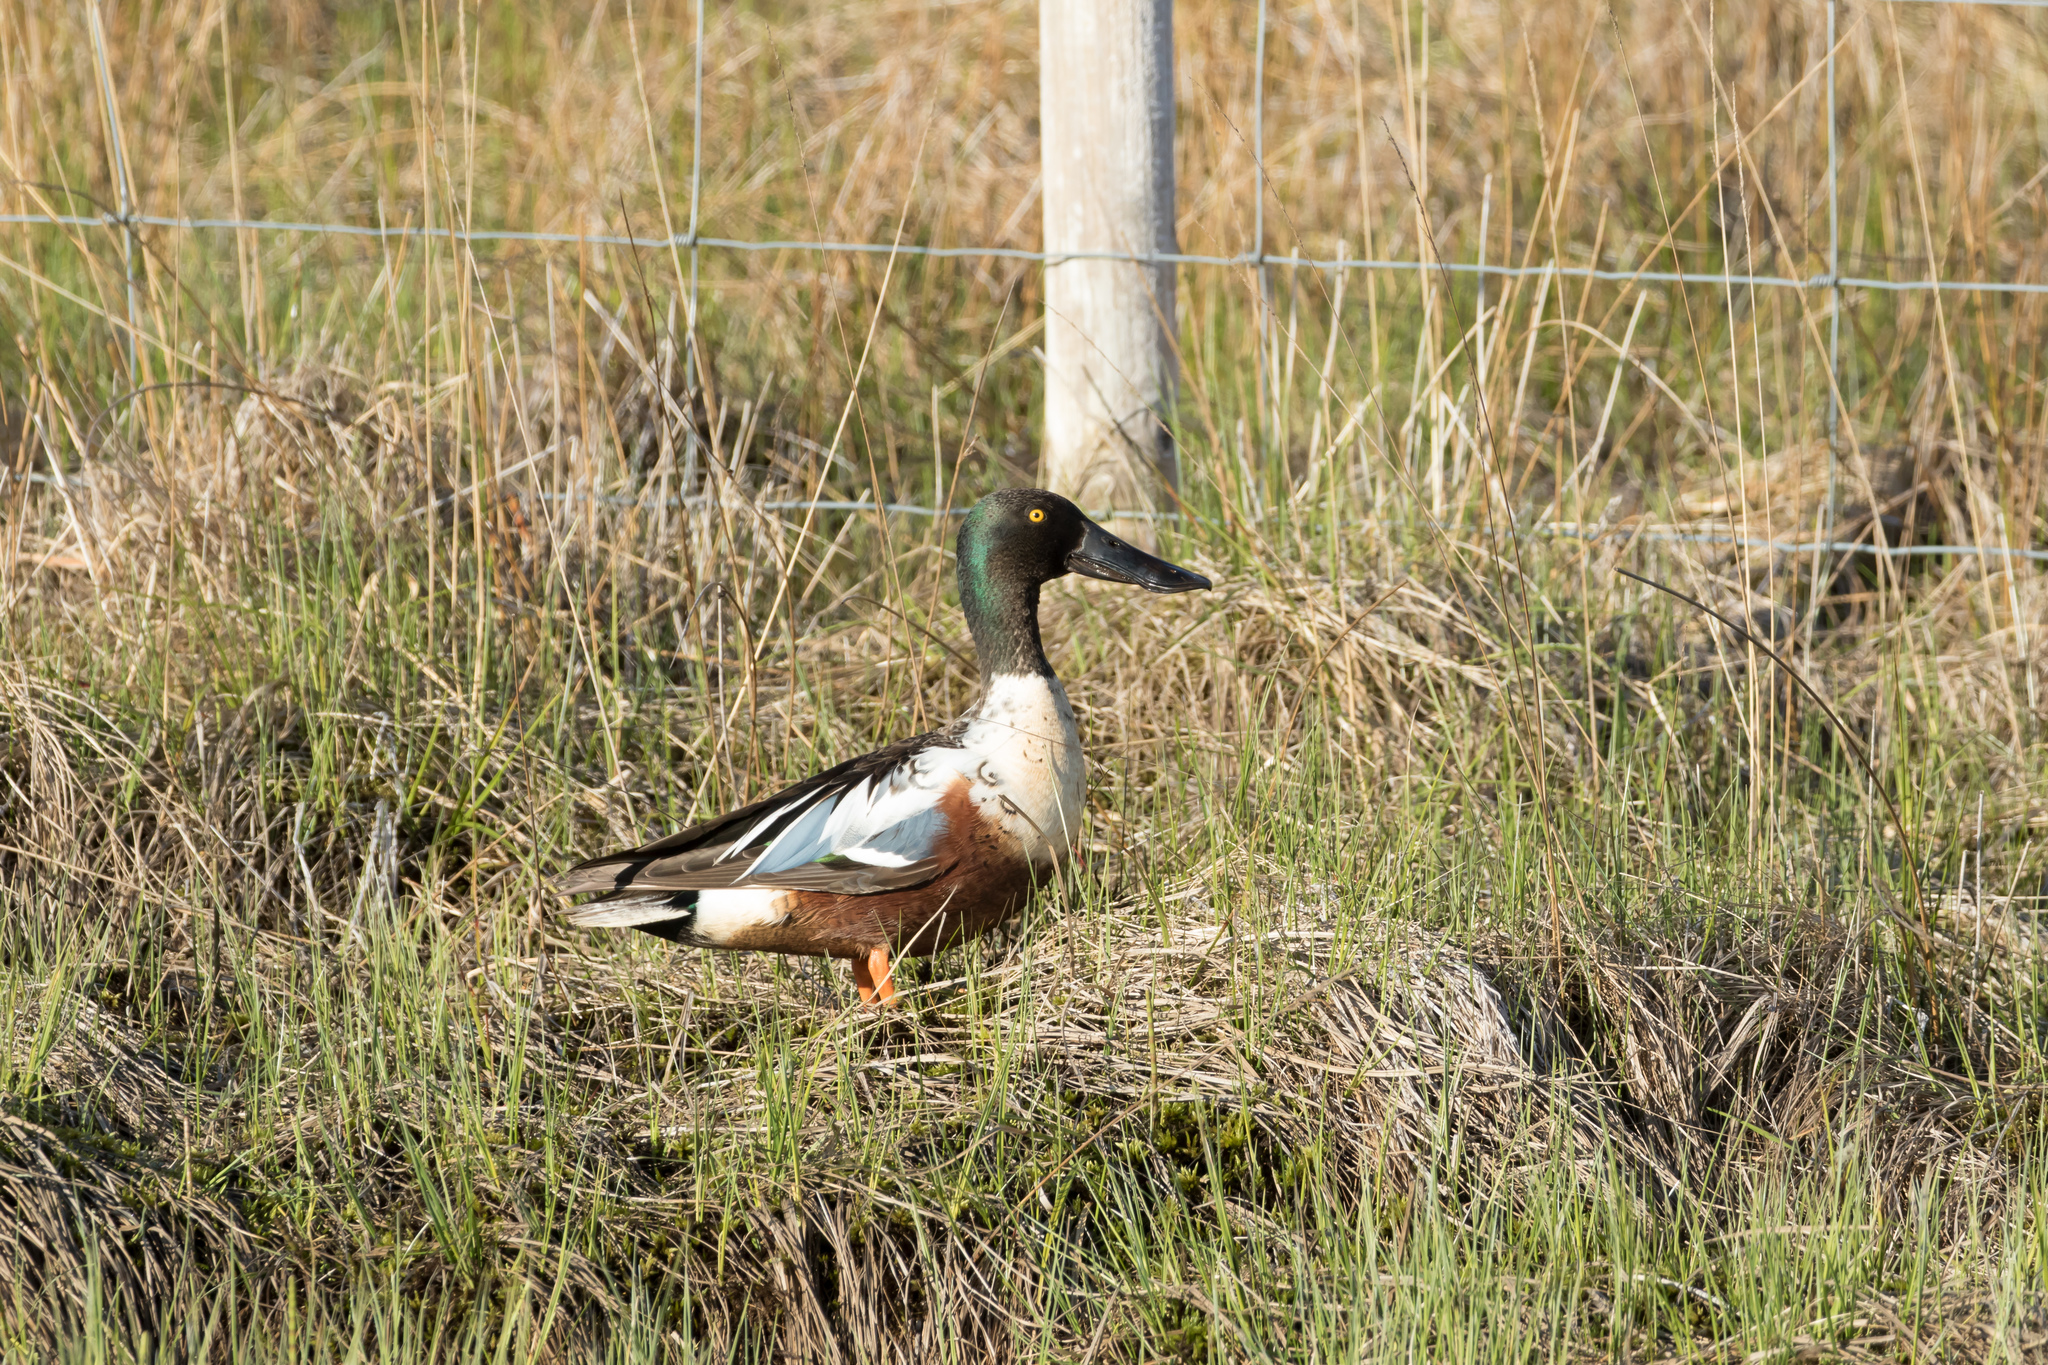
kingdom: Animalia
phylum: Chordata
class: Aves
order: Anseriformes
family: Anatidae
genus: Spatula
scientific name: Spatula clypeata
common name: Northern shoveler
